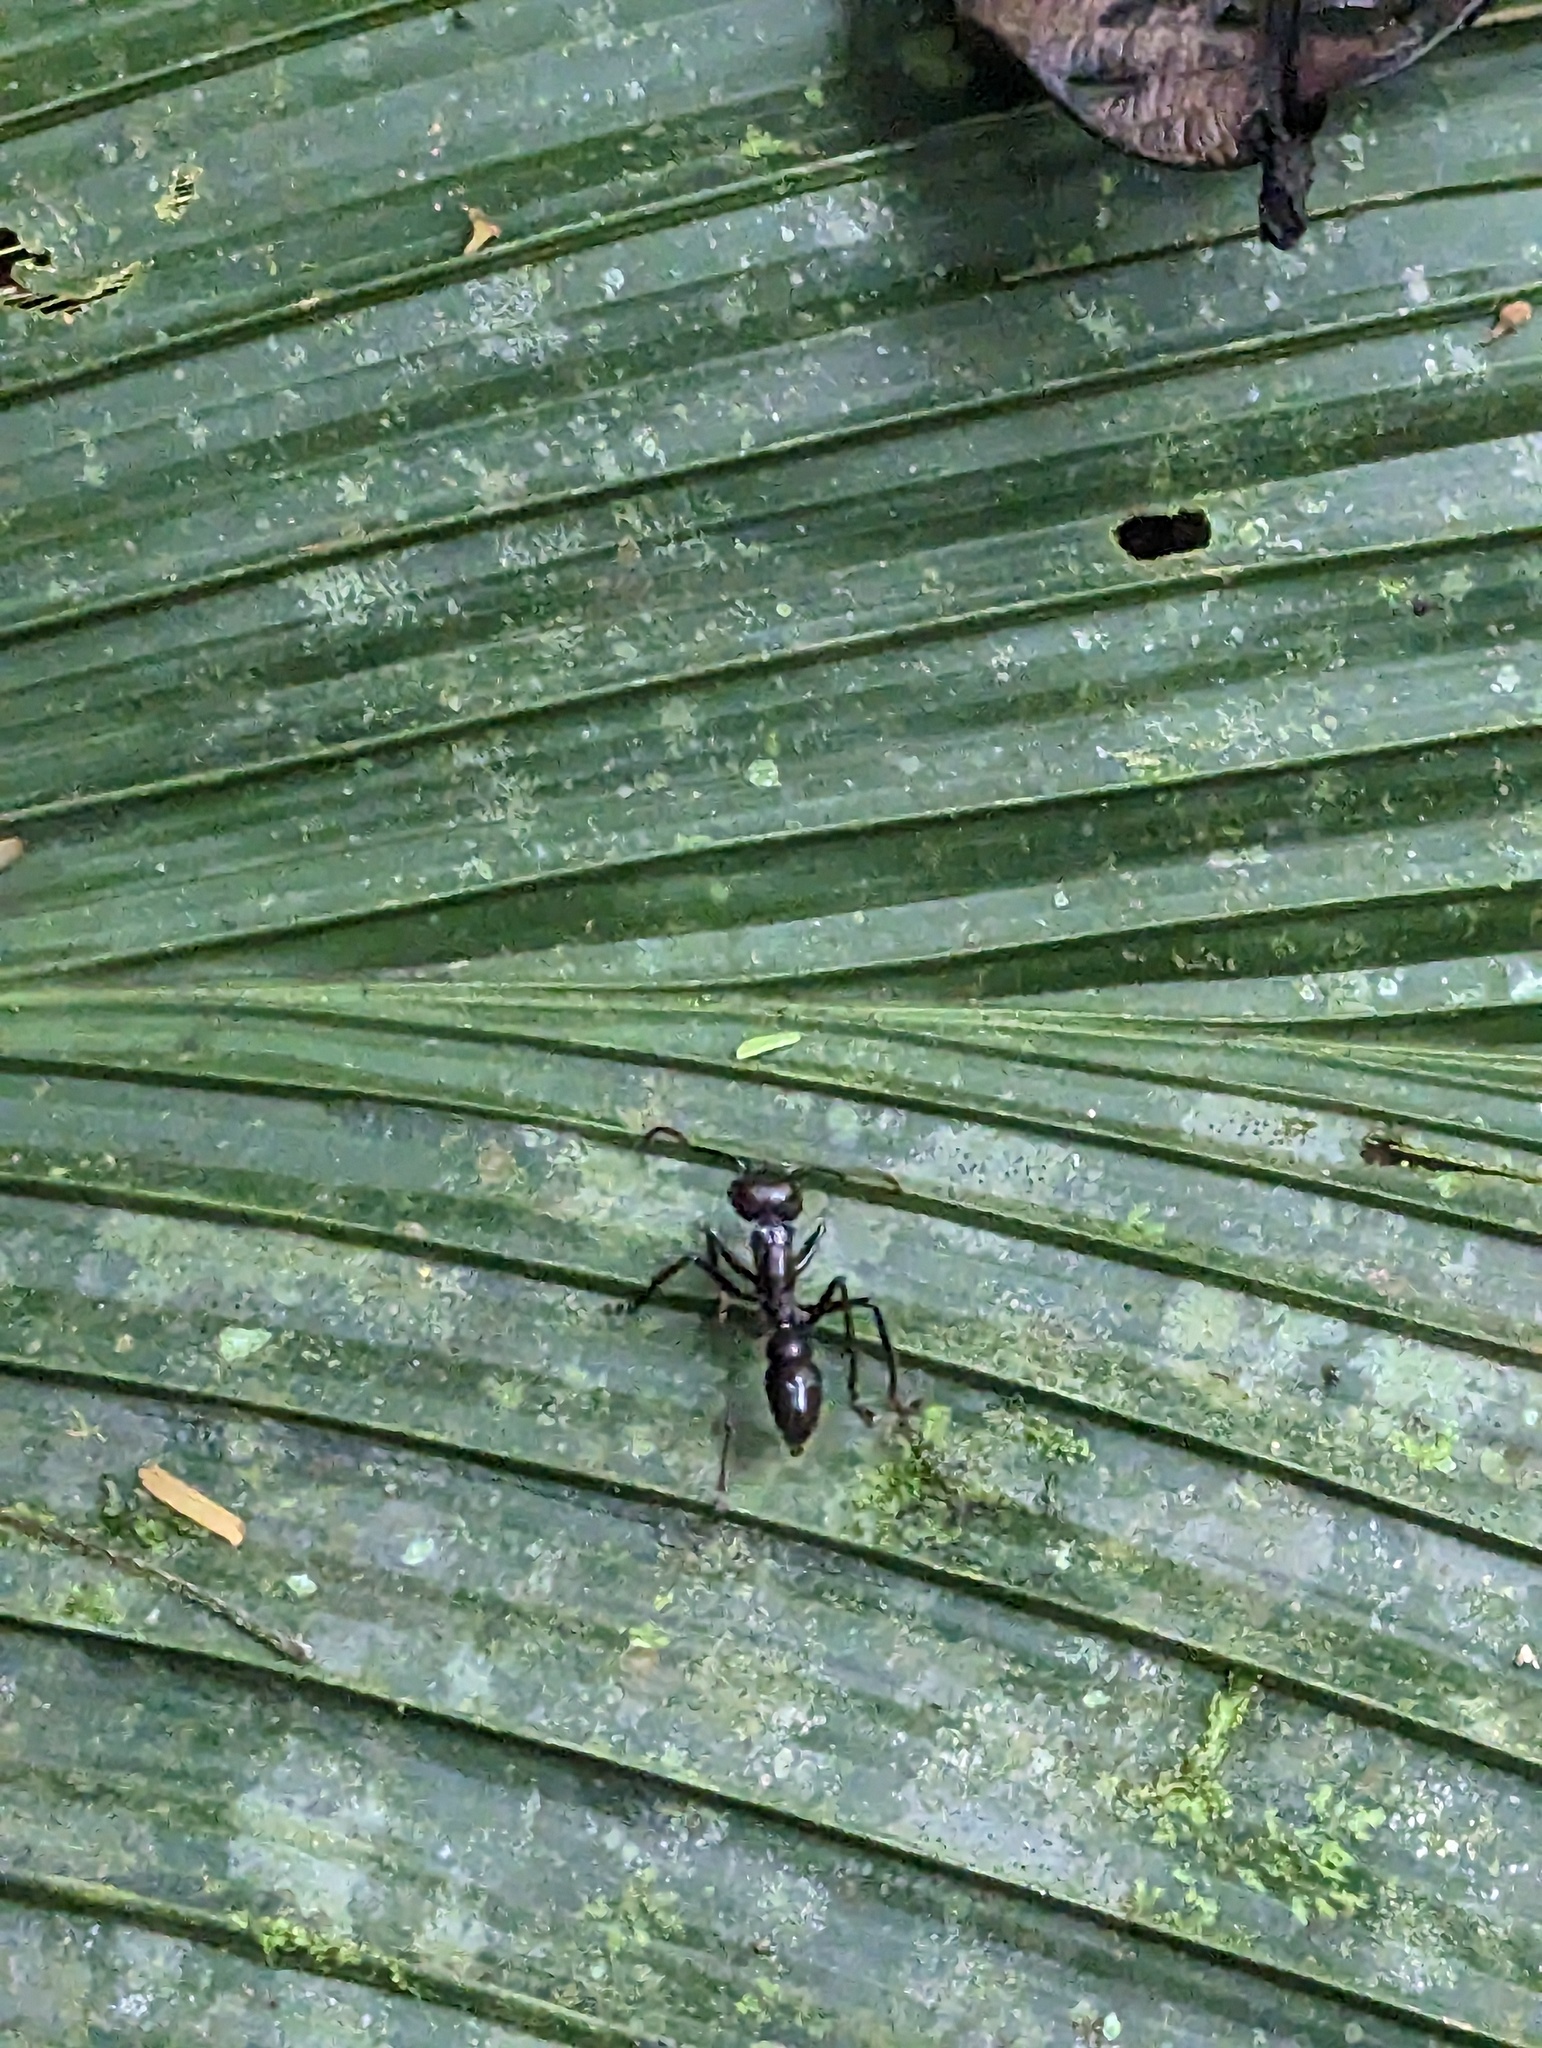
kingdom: Animalia
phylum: Arthropoda
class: Insecta
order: Hymenoptera
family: Formicidae
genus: Paraponera
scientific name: Paraponera clavata
